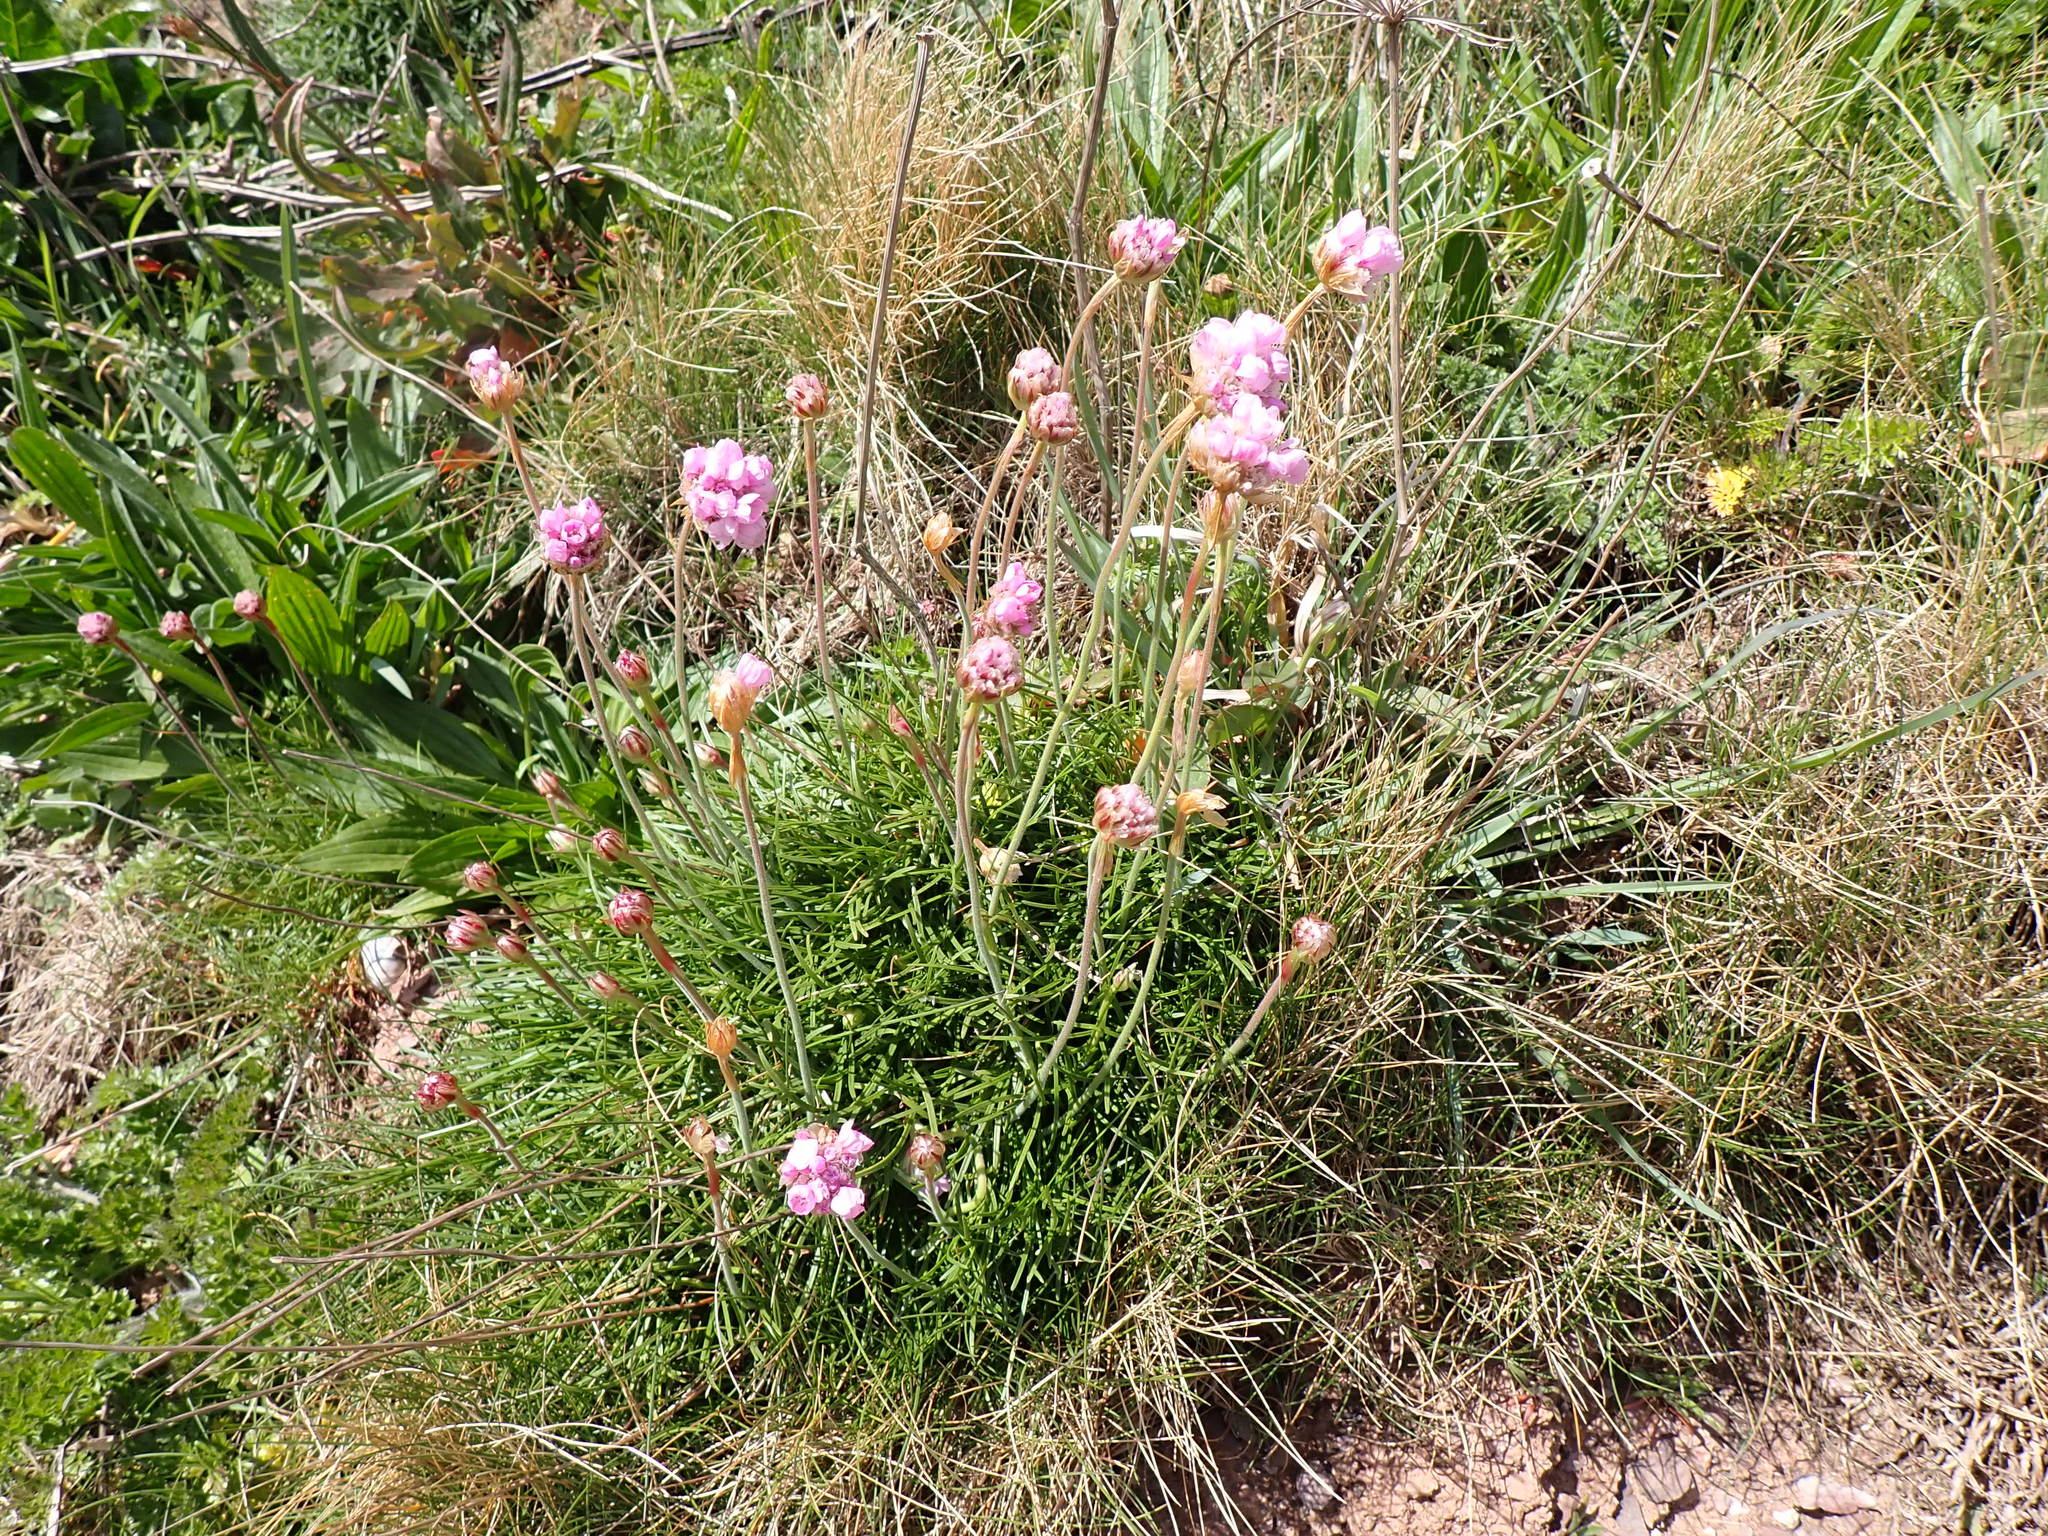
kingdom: Plantae
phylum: Tracheophyta
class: Magnoliopsida
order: Caryophyllales
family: Plumbaginaceae
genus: Armeria
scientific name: Armeria maritima
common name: Thrift
